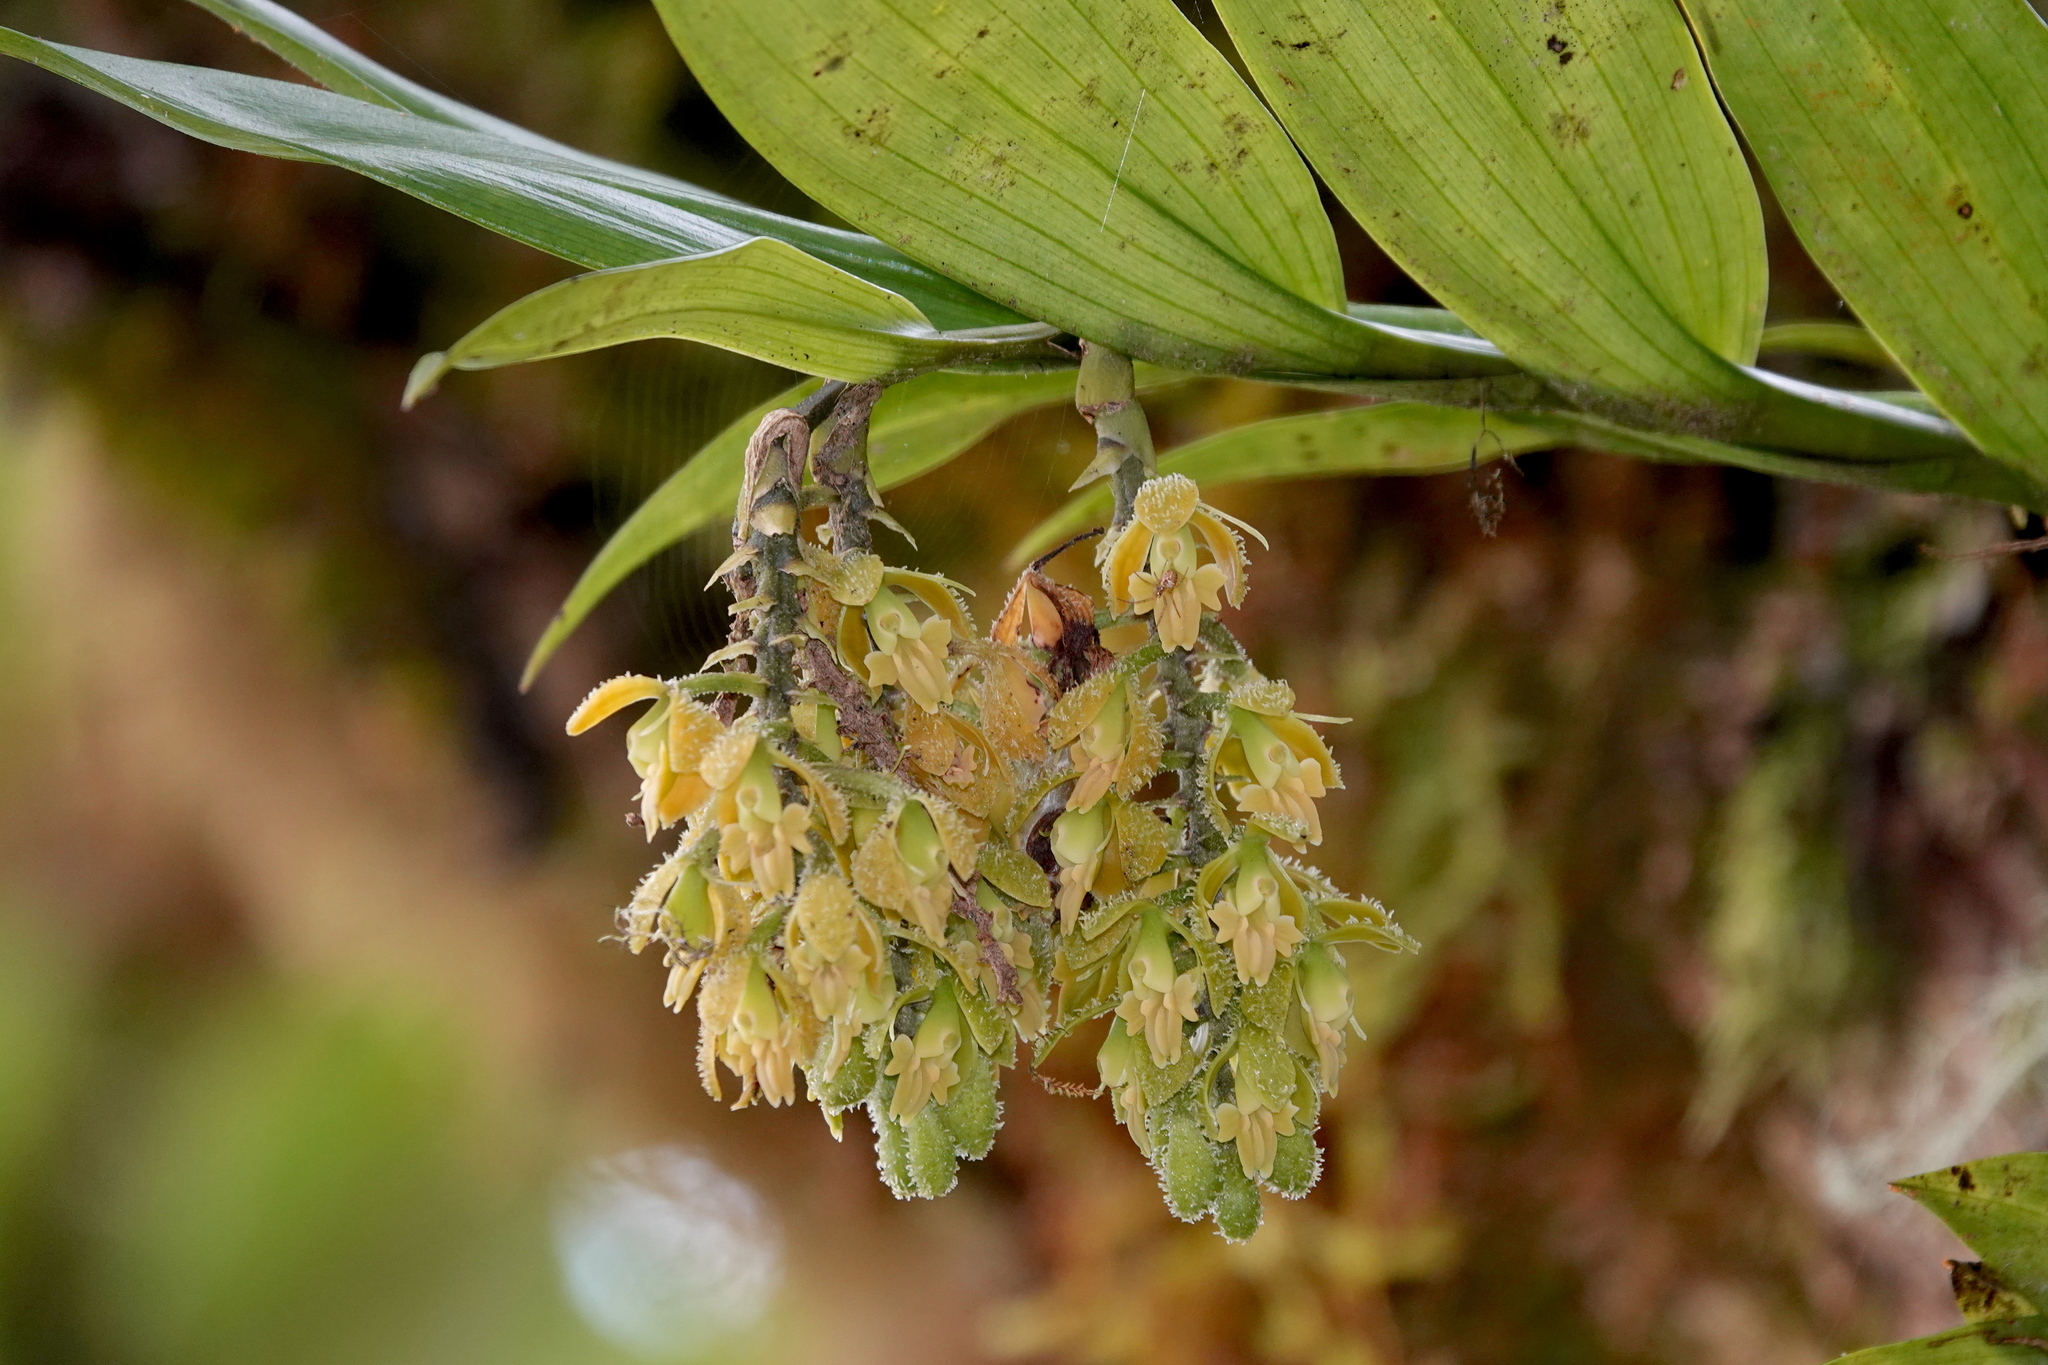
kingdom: Plantae
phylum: Tracheophyta
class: Liliopsida
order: Asparagales
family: Orchidaceae
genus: Epidendrum
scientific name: Epidendrum muricatisepalum
